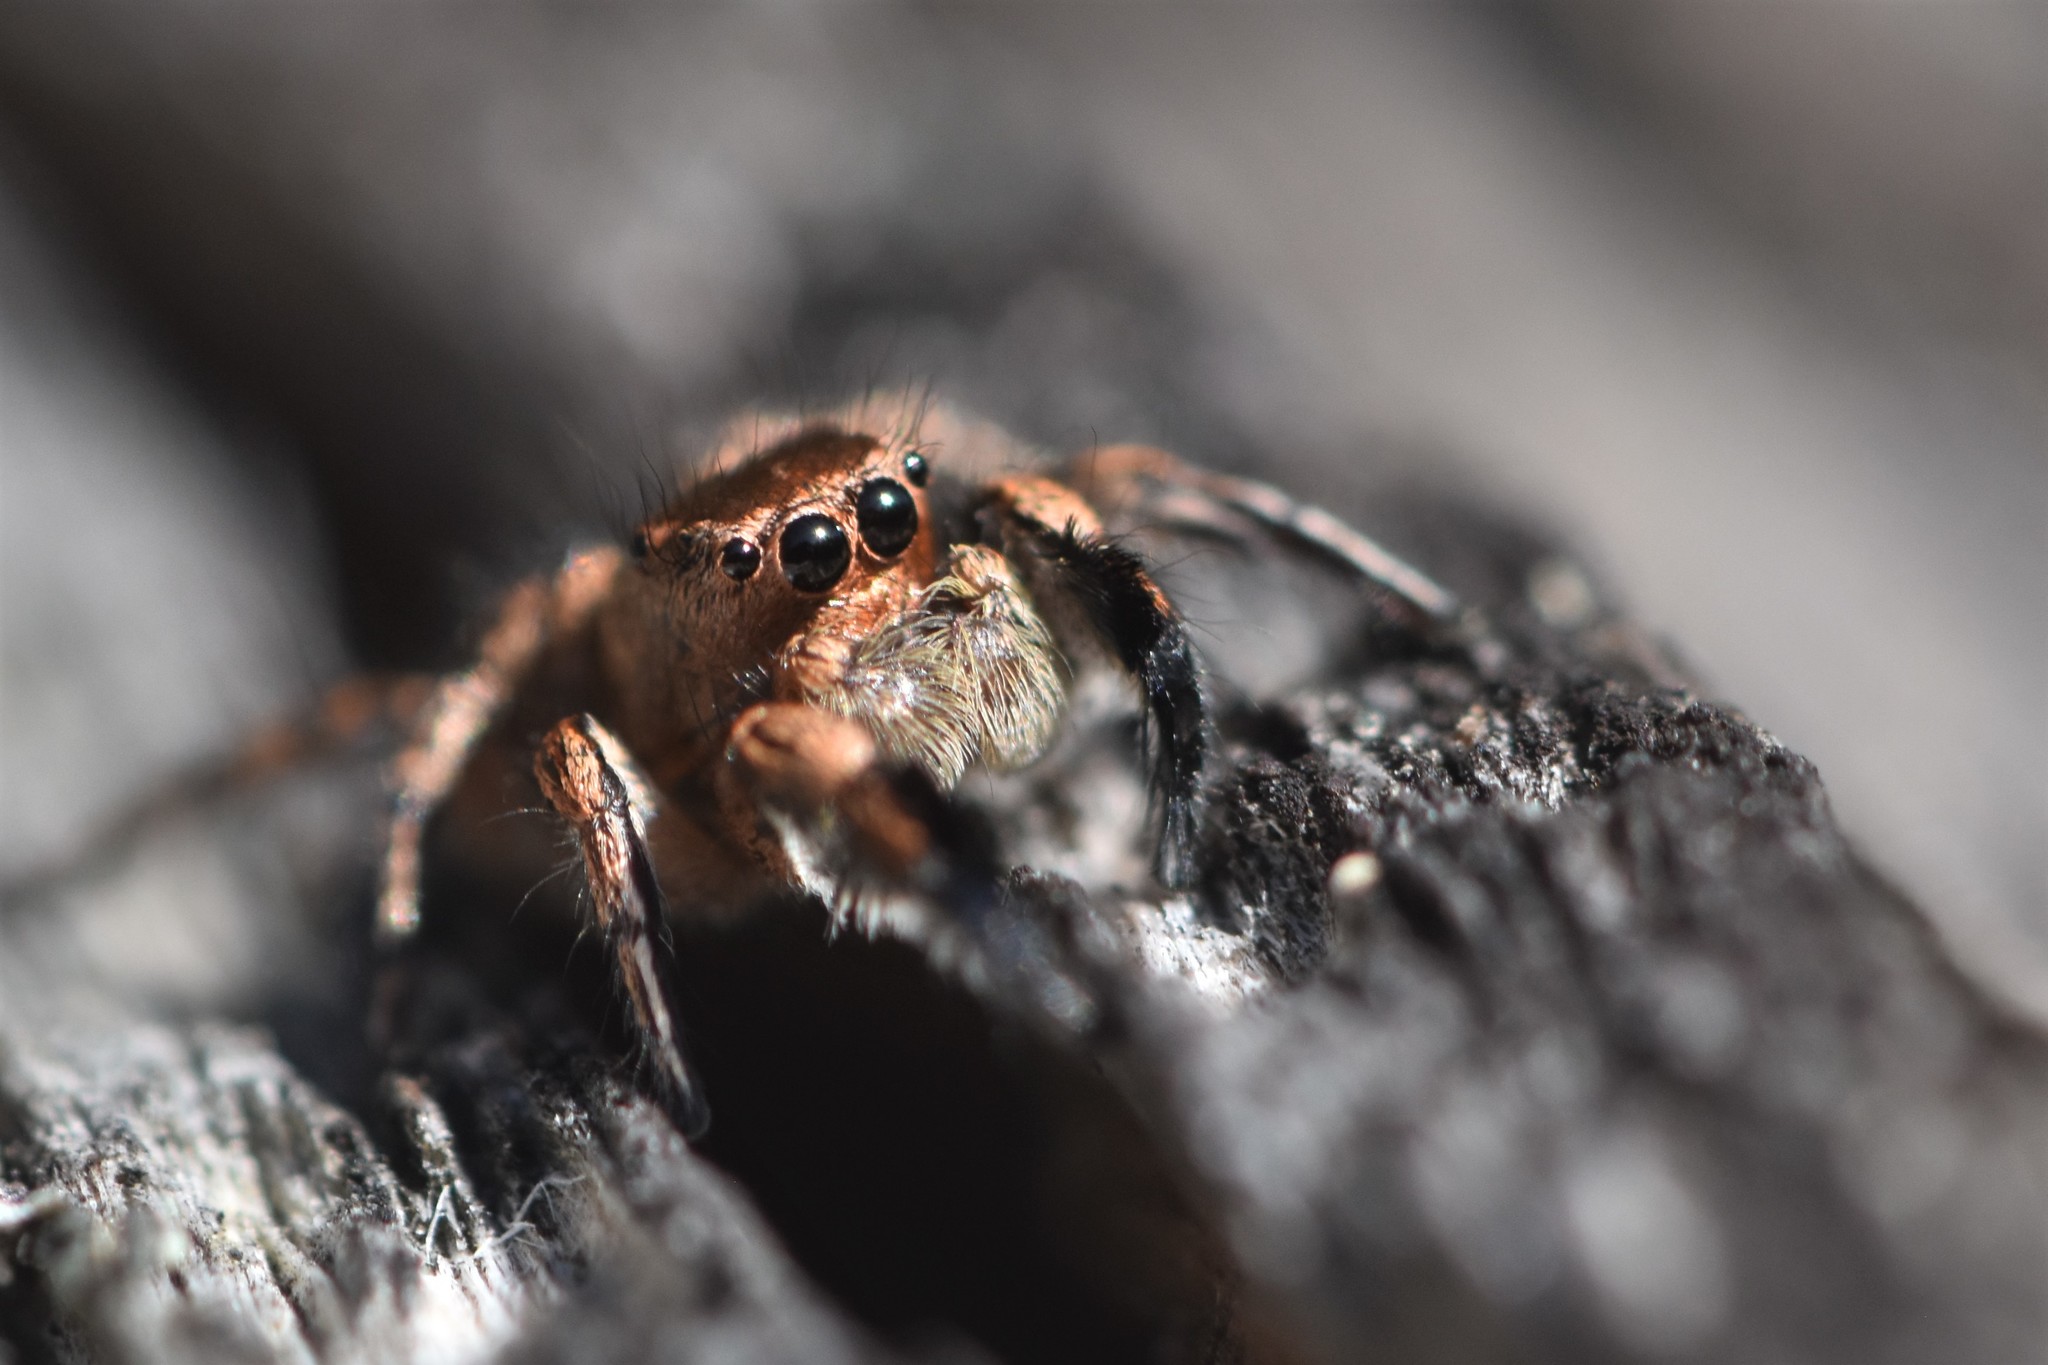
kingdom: Animalia
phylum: Arthropoda
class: Arachnida
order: Araneae
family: Salticidae
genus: Habronattus
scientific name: Habronattus hirsutus
